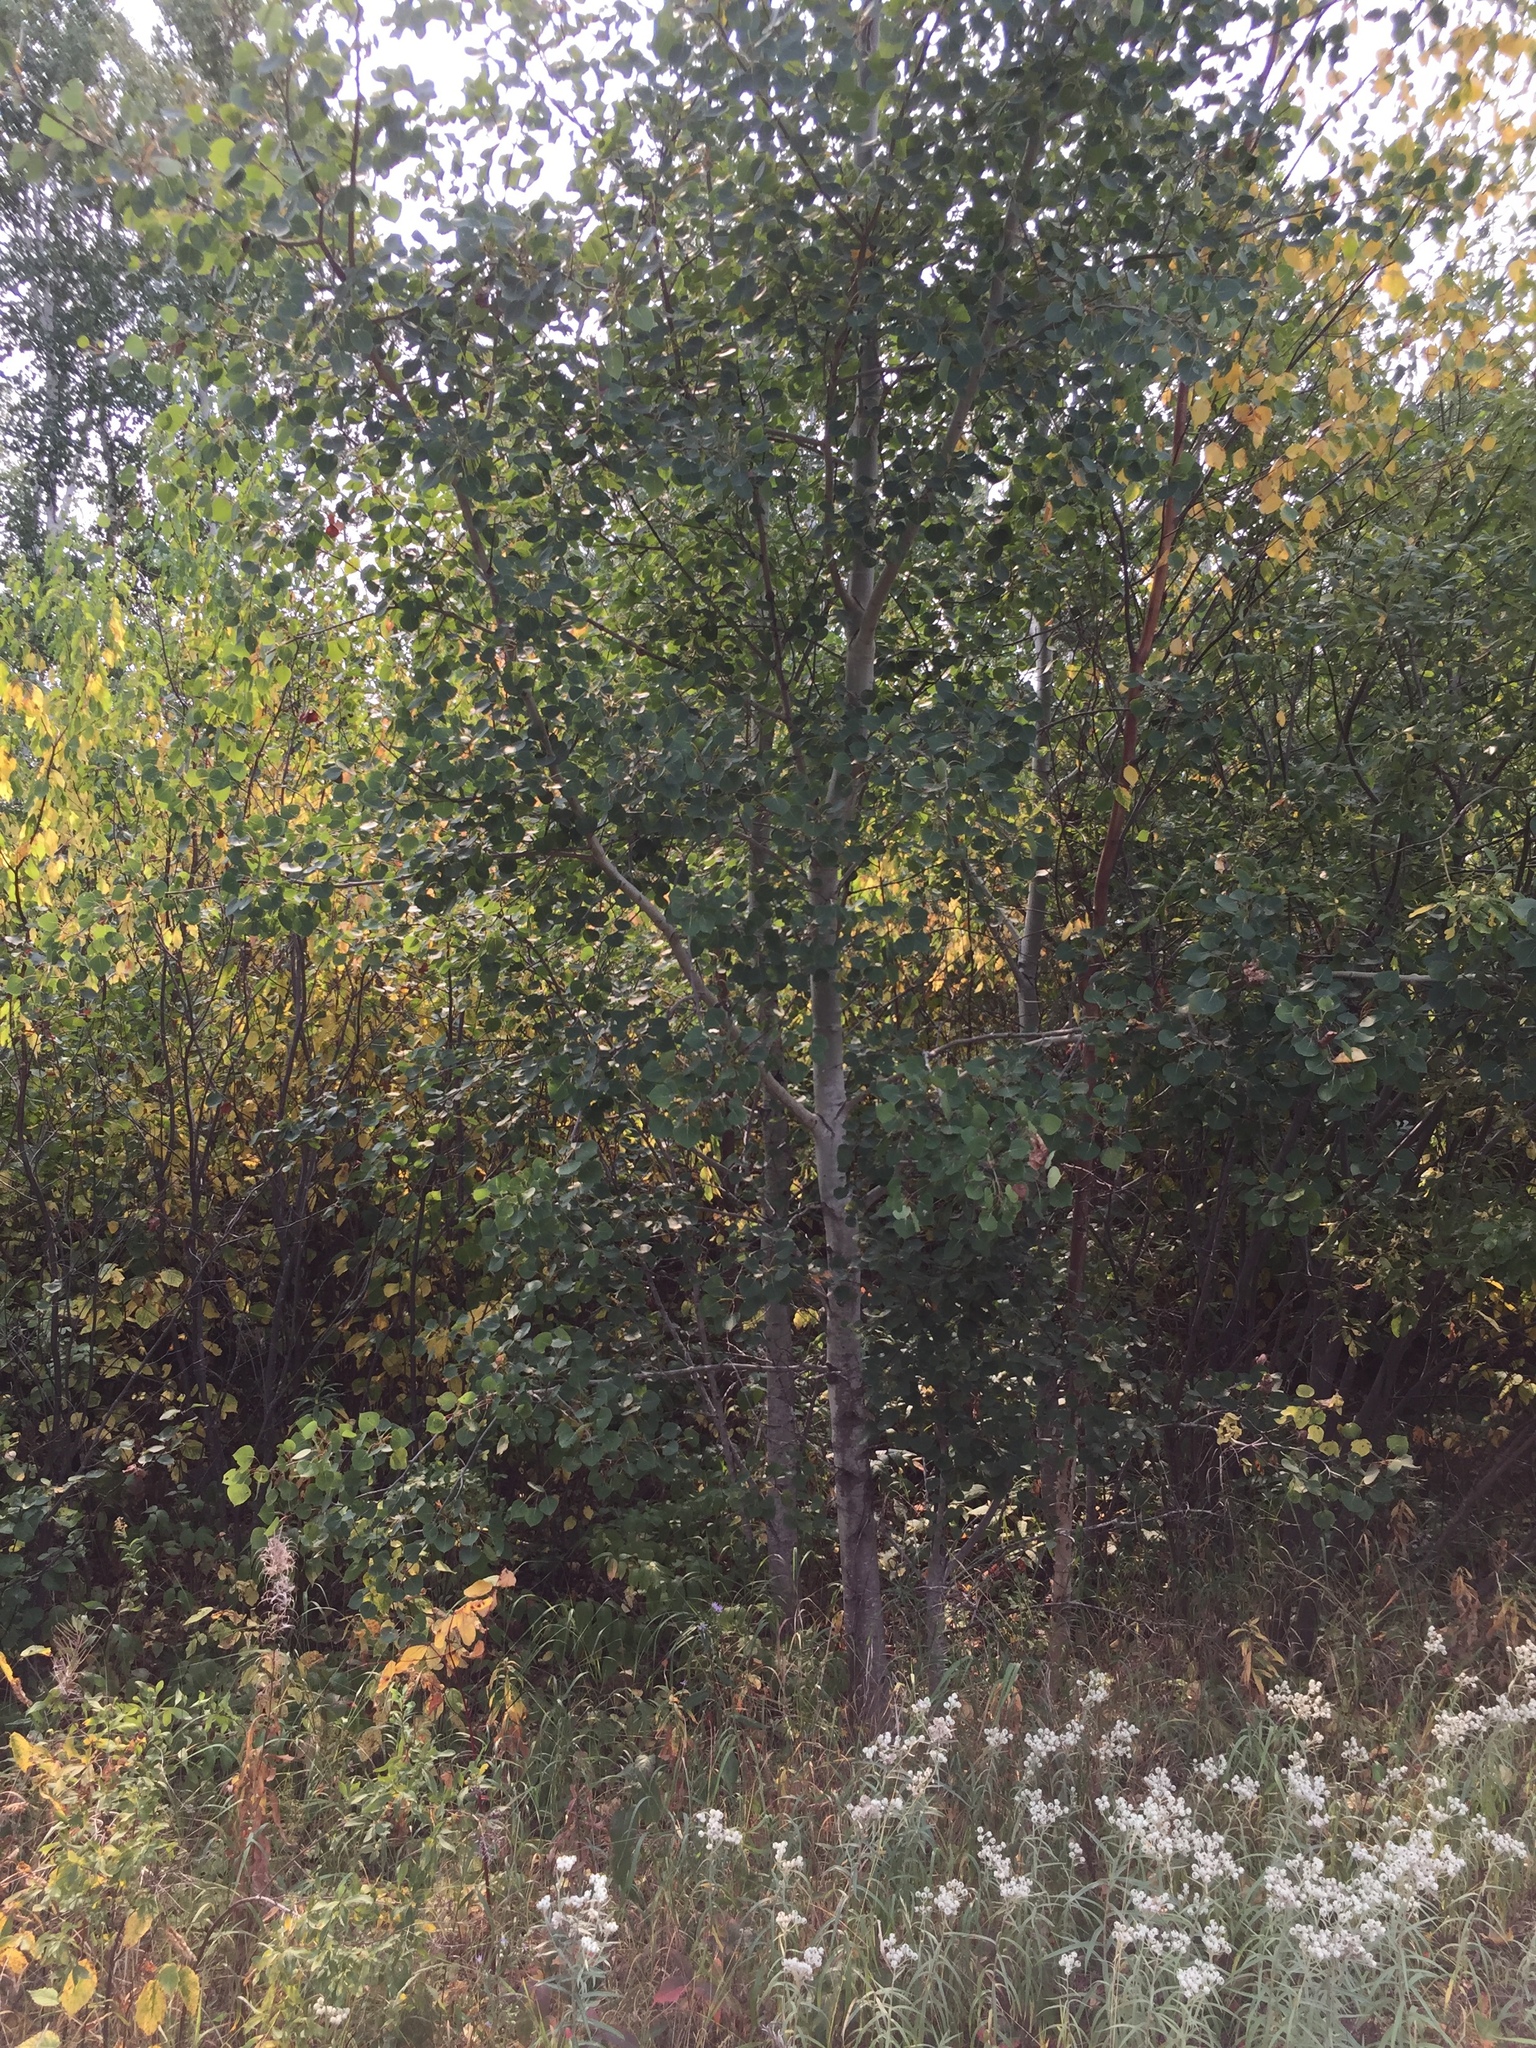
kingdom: Plantae
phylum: Tracheophyta
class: Magnoliopsida
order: Malpighiales
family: Salicaceae
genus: Populus
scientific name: Populus tremuloides
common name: Quaking aspen
